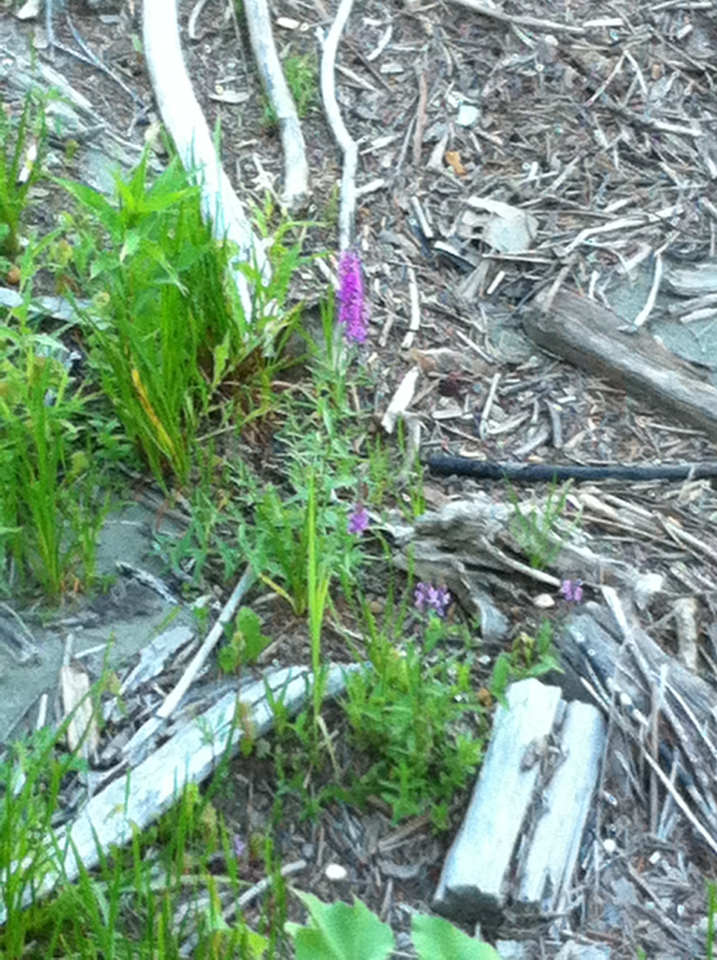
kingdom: Plantae
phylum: Tracheophyta
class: Magnoliopsida
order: Myrtales
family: Lythraceae
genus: Lythrum
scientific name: Lythrum salicaria
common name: Purple loosestrife
